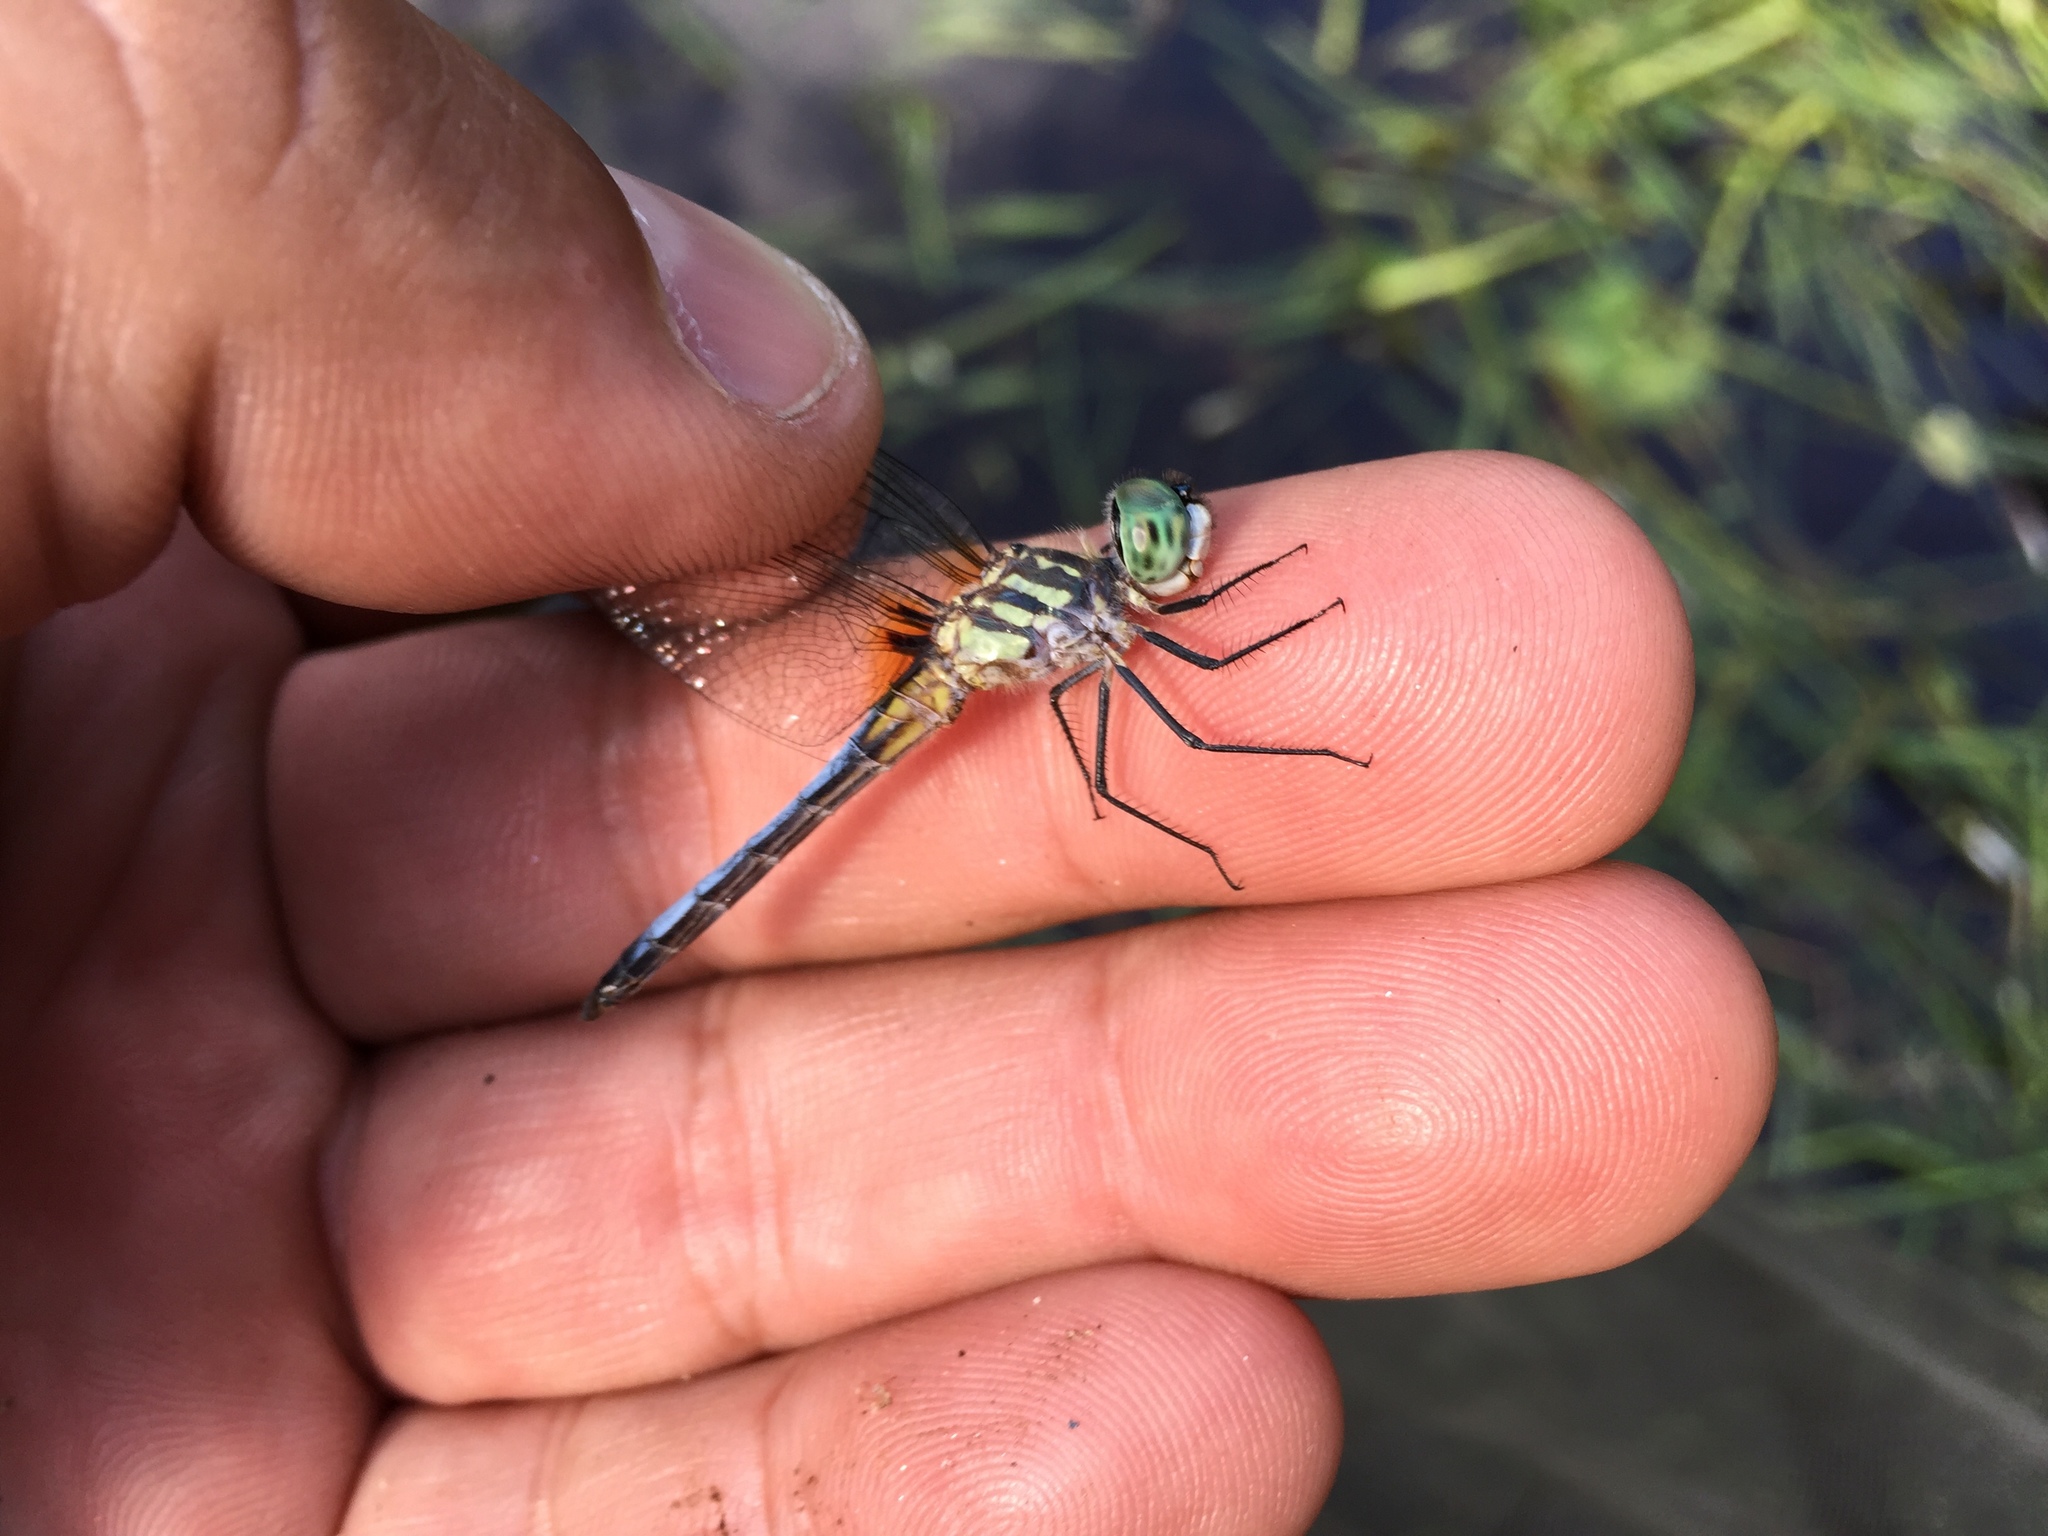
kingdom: Animalia
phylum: Arthropoda
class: Insecta
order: Odonata
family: Libellulidae
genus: Pachydiplax
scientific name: Pachydiplax longipennis
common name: Blue dasher
